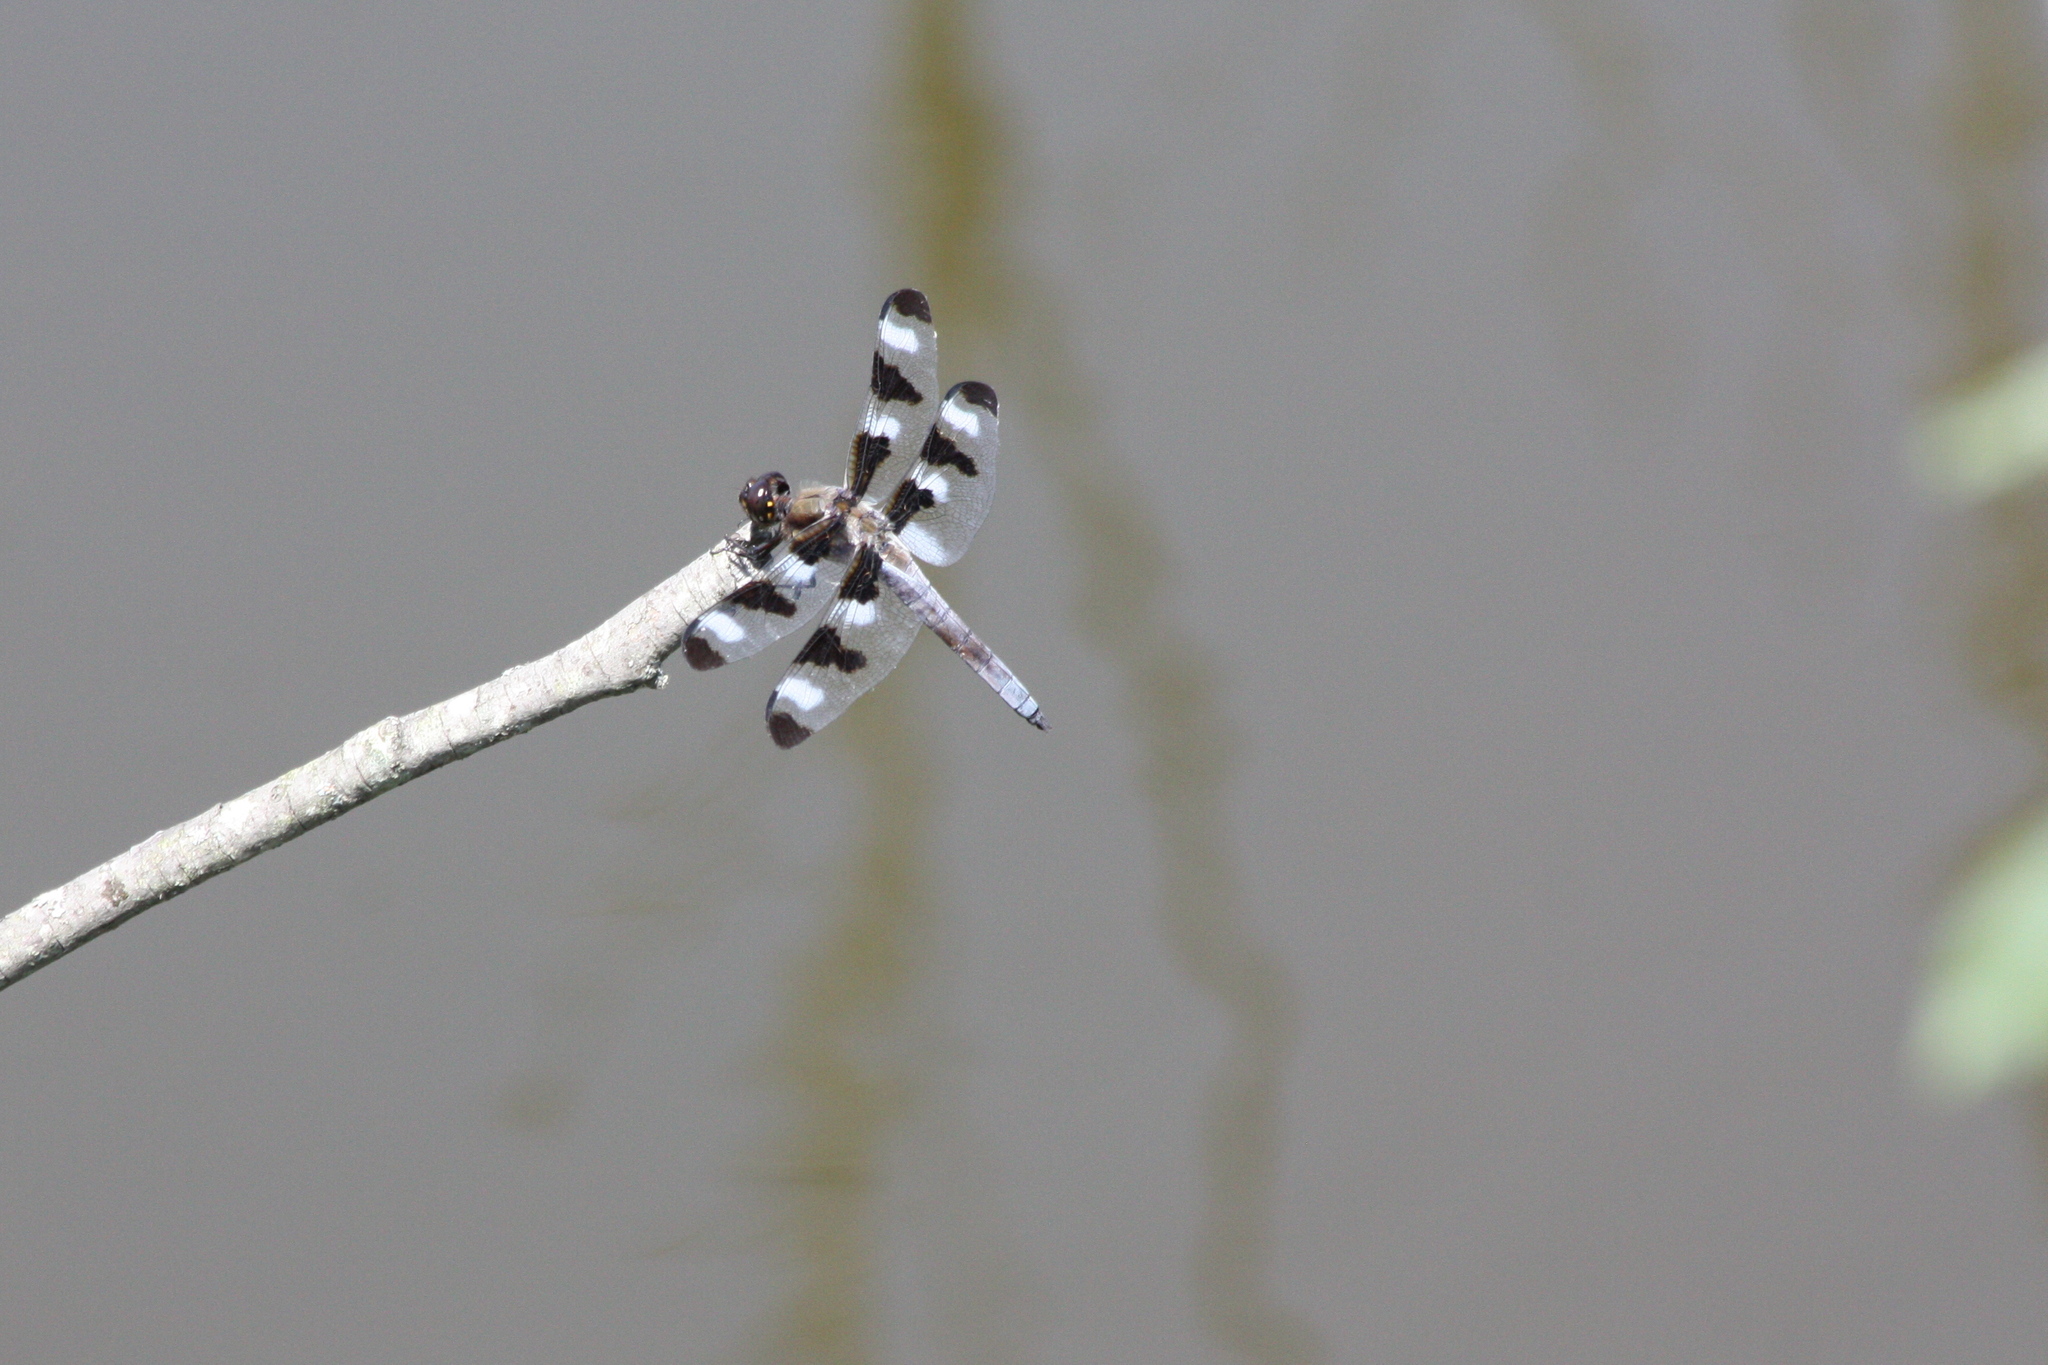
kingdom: Animalia
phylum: Arthropoda
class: Insecta
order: Odonata
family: Libellulidae
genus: Libellula
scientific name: Libellula pulchella
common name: Twelve-spotted skimmer
